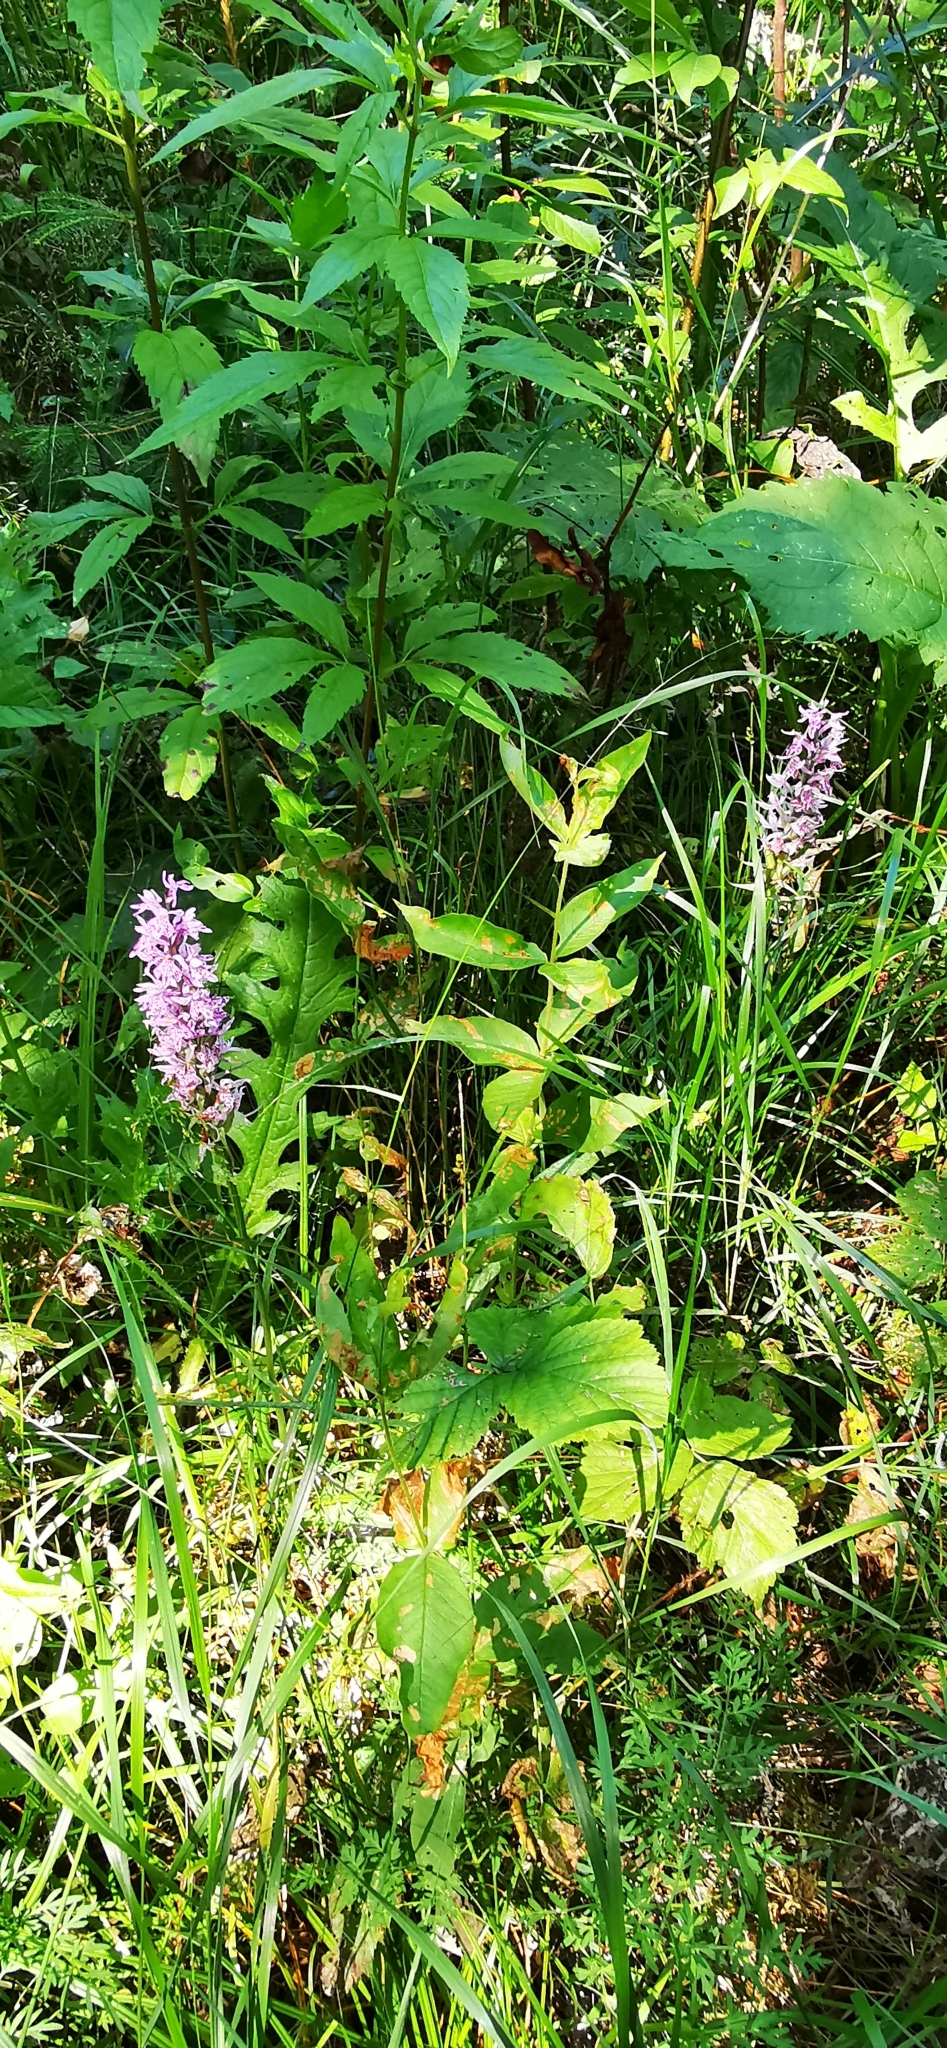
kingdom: Plantae
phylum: Tracheophyta
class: Liliopsida
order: Asparagales
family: Orchidaceae
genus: Dactylorhiza
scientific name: Dactylorhiza maculata
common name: Heath spotted-orchid
